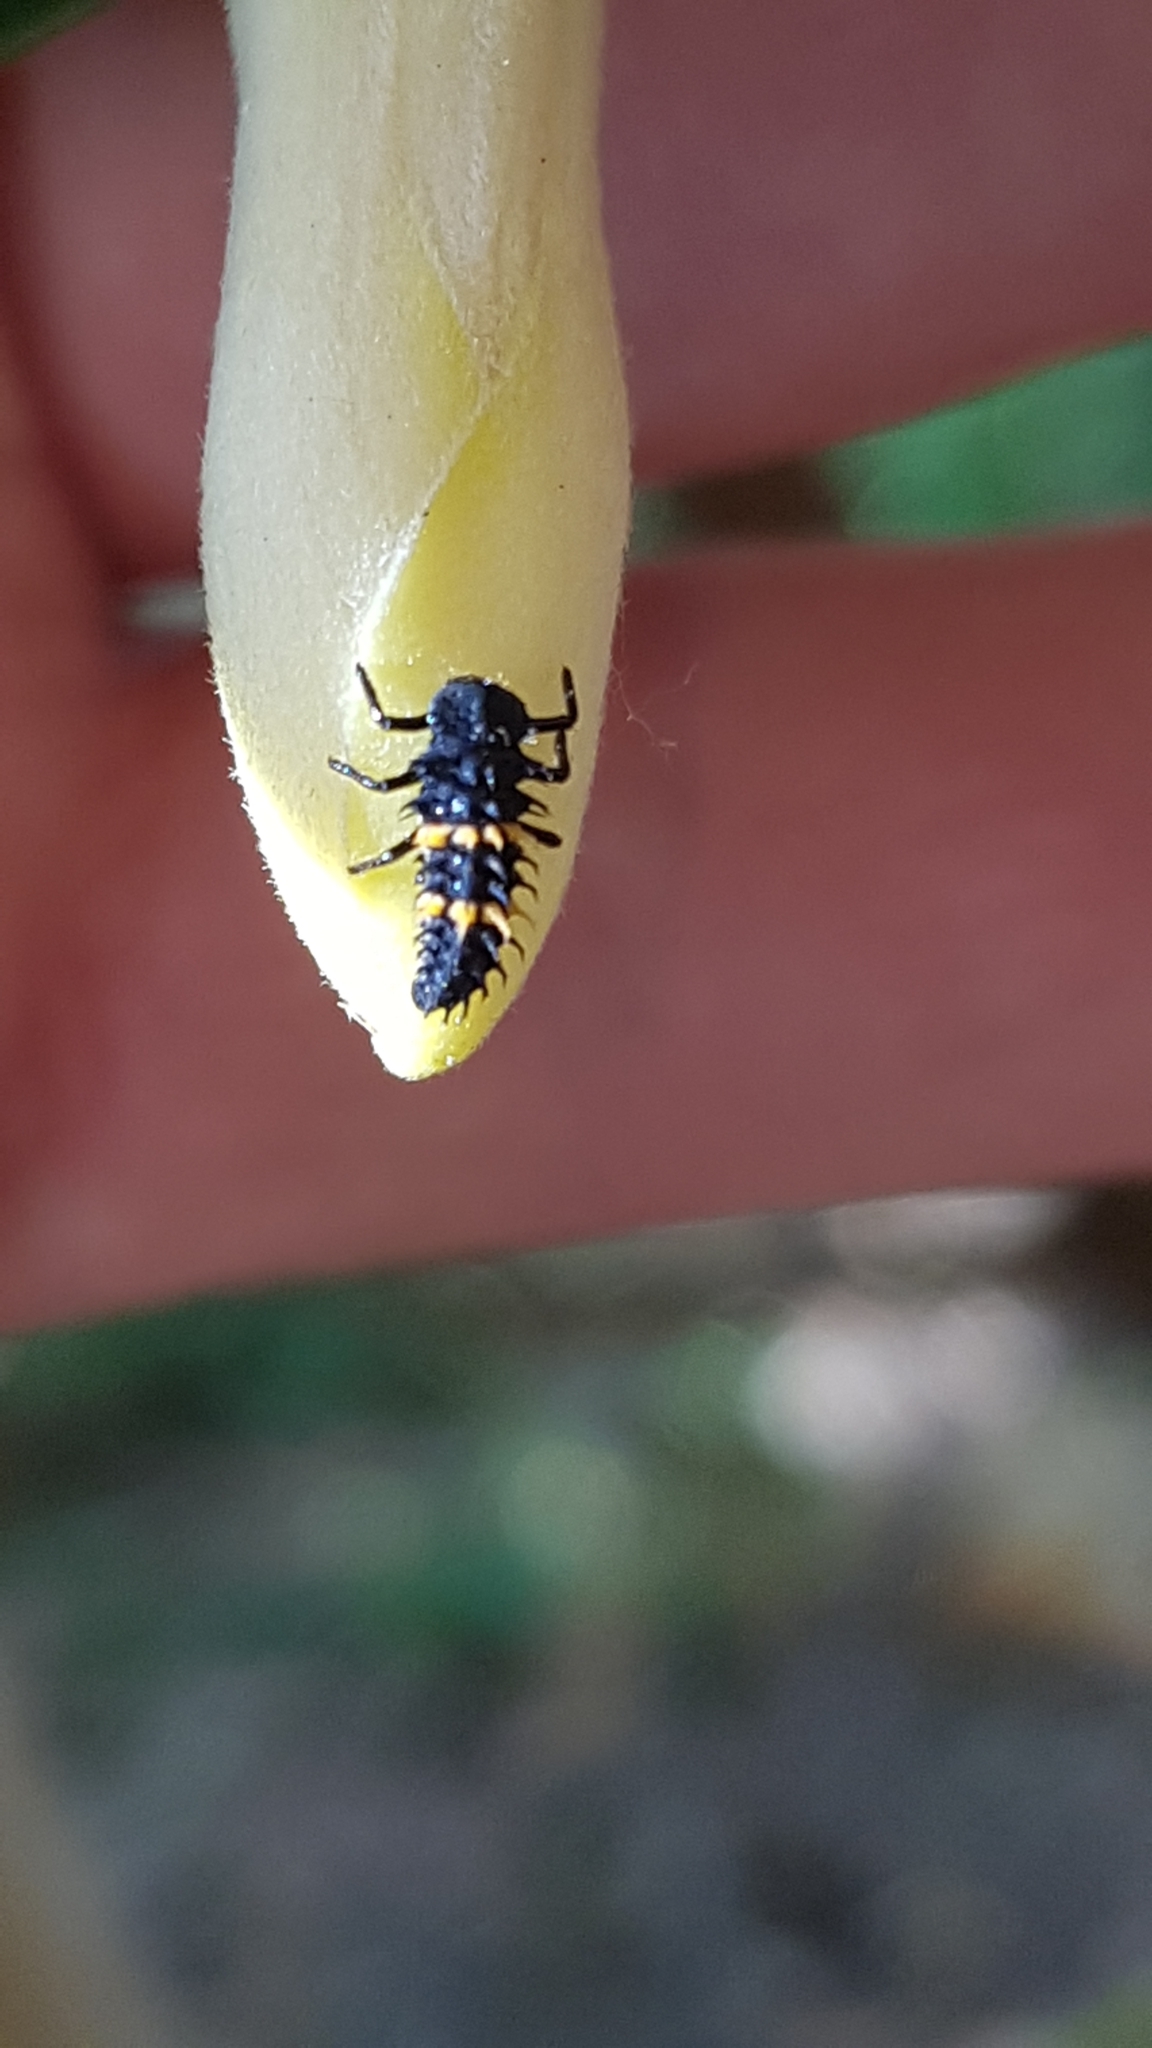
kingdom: Animalia
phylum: Arthropoda
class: Insecta
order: Coleoptera
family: Coccinellidae
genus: Harmonia
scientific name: Harmonia conformis
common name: Common spotted ladybird beetle
